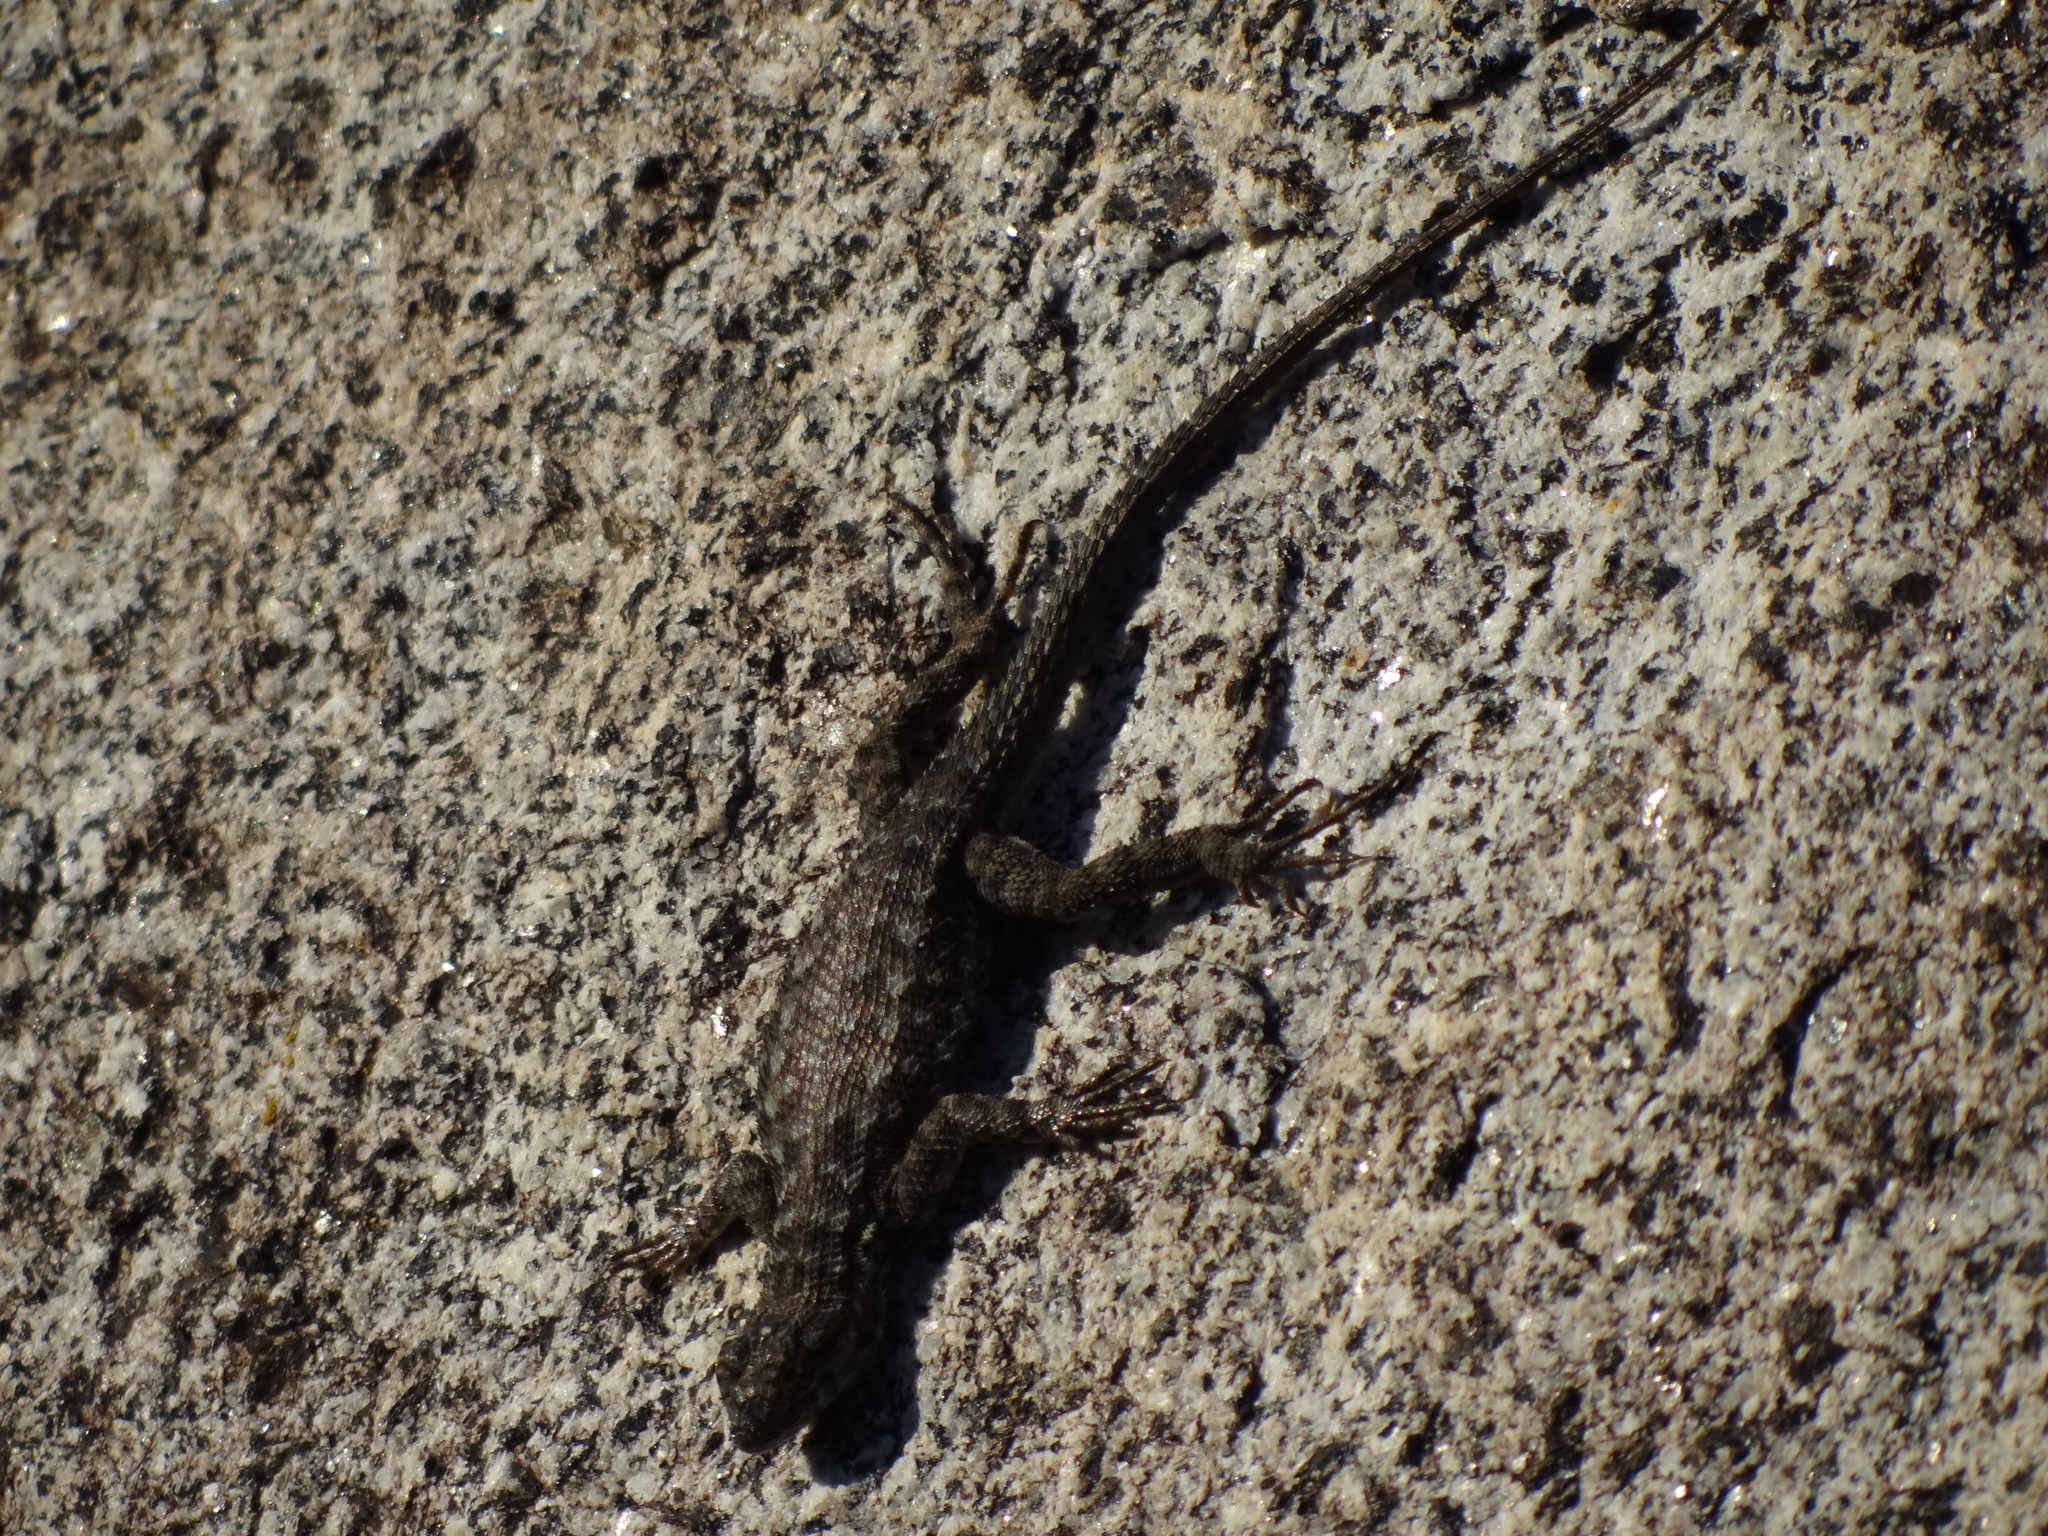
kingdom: Animalia
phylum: Chordata
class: Squamata
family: Phrynosomatidae
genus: Sceloporus
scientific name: Sceloporus occidentalis
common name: Western fence lizard
